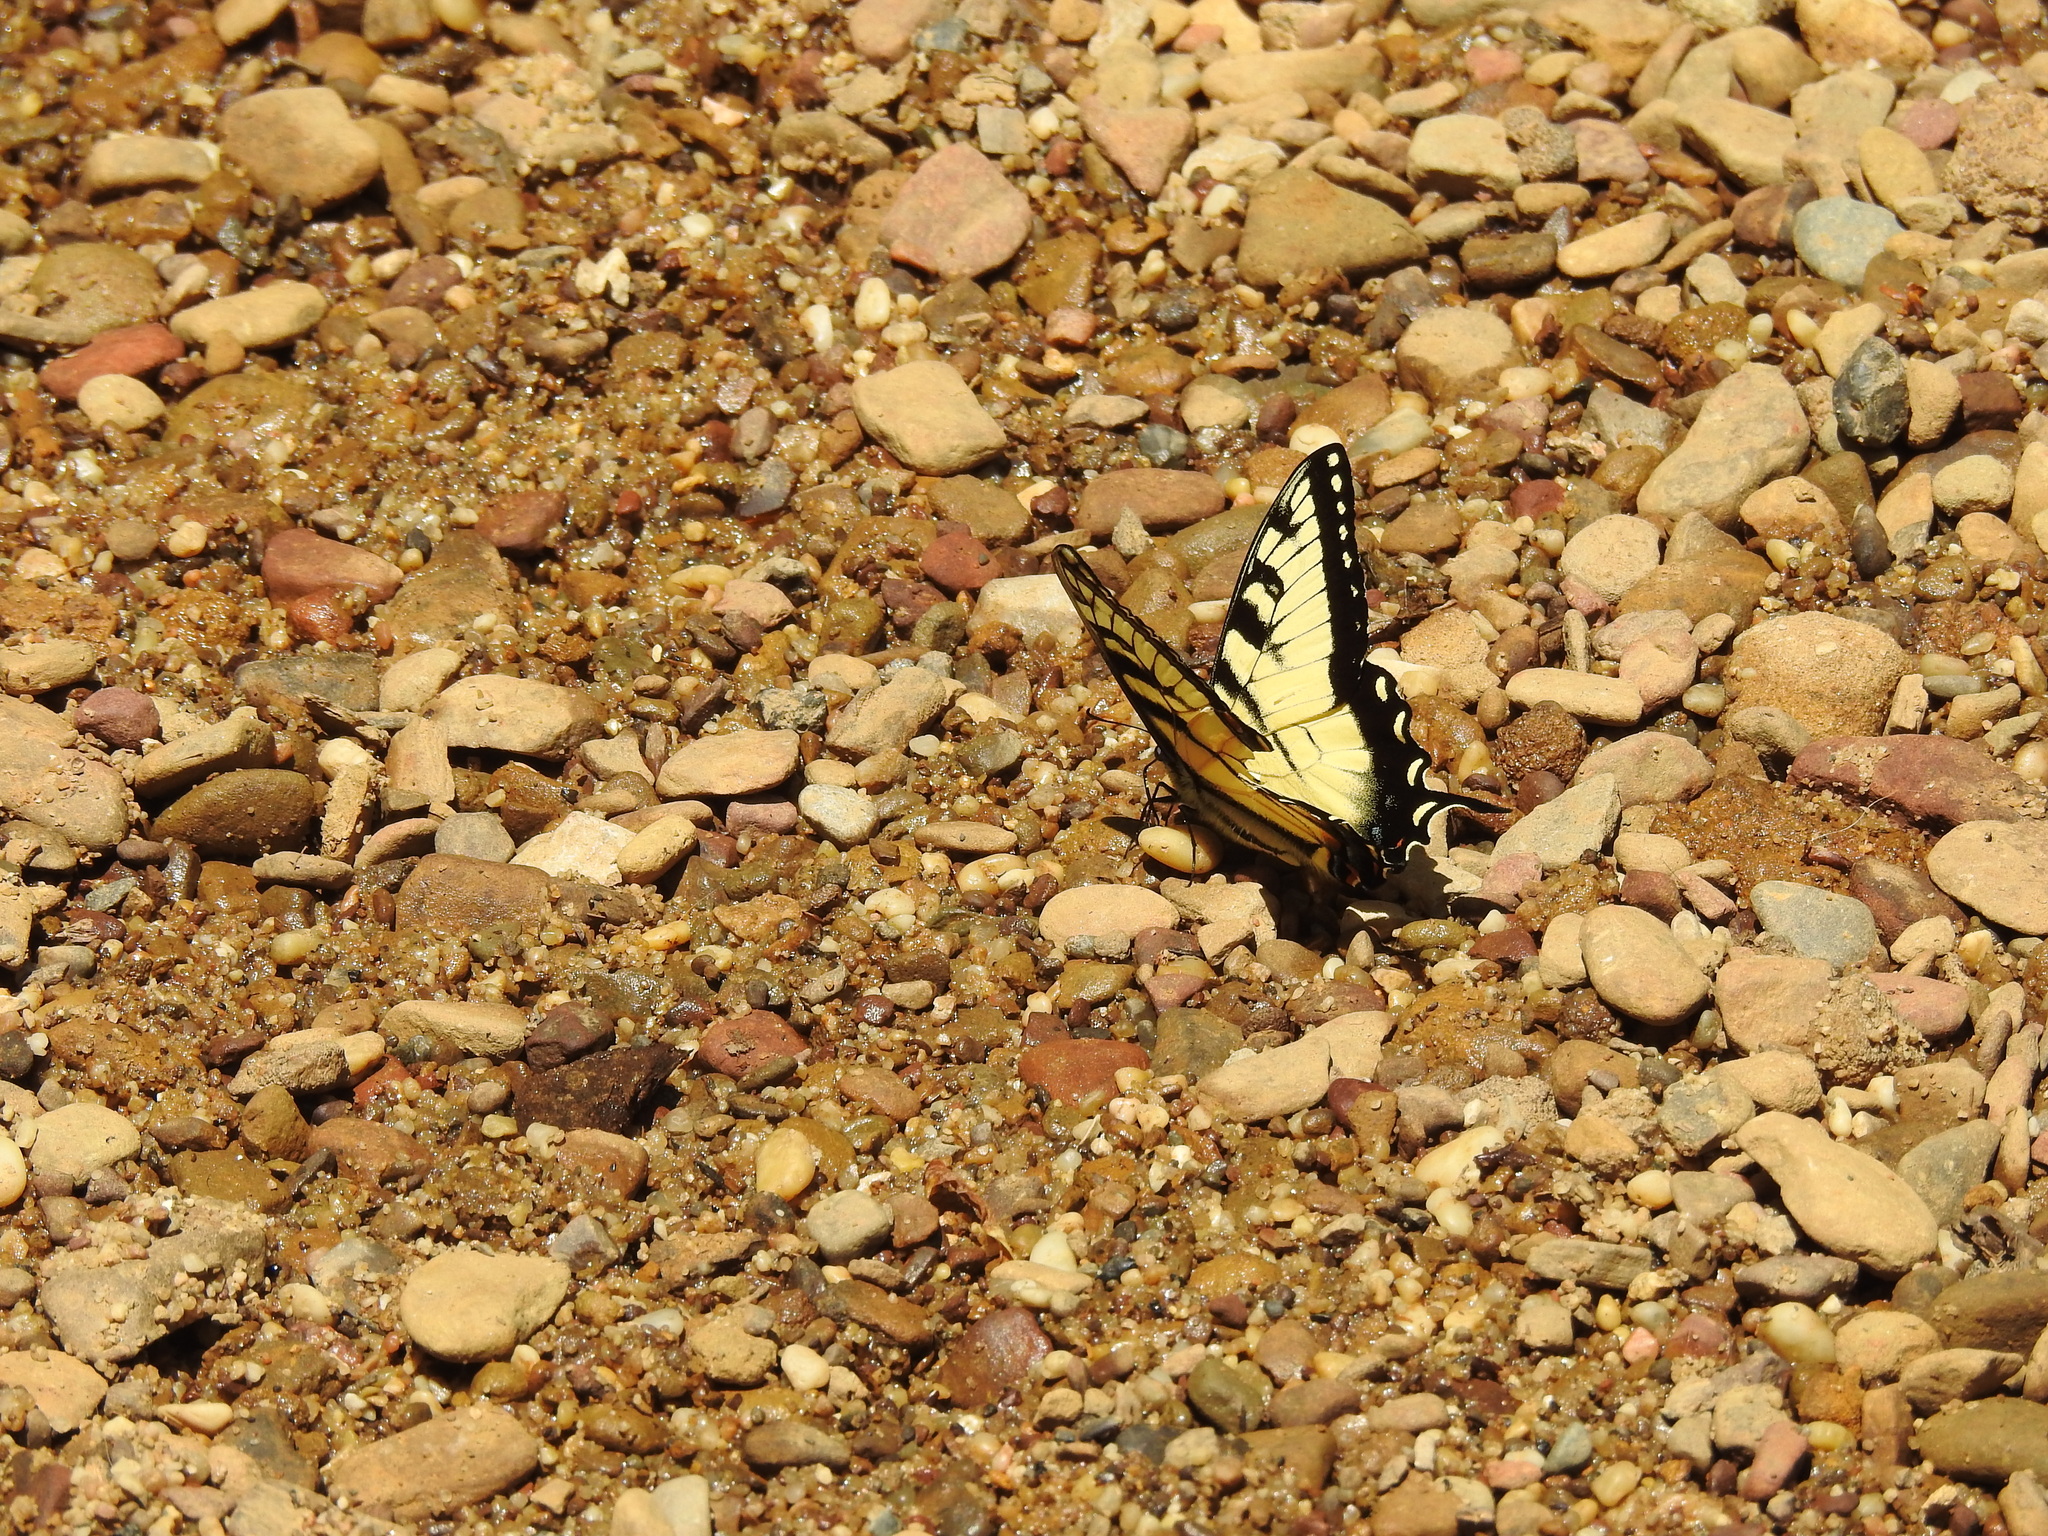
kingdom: Animalia
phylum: Arthropoda
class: Insecta
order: Lepidoptera
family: Papilionidae
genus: Papilio
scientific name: Papilio glaucus
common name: Tiger swallowtail
